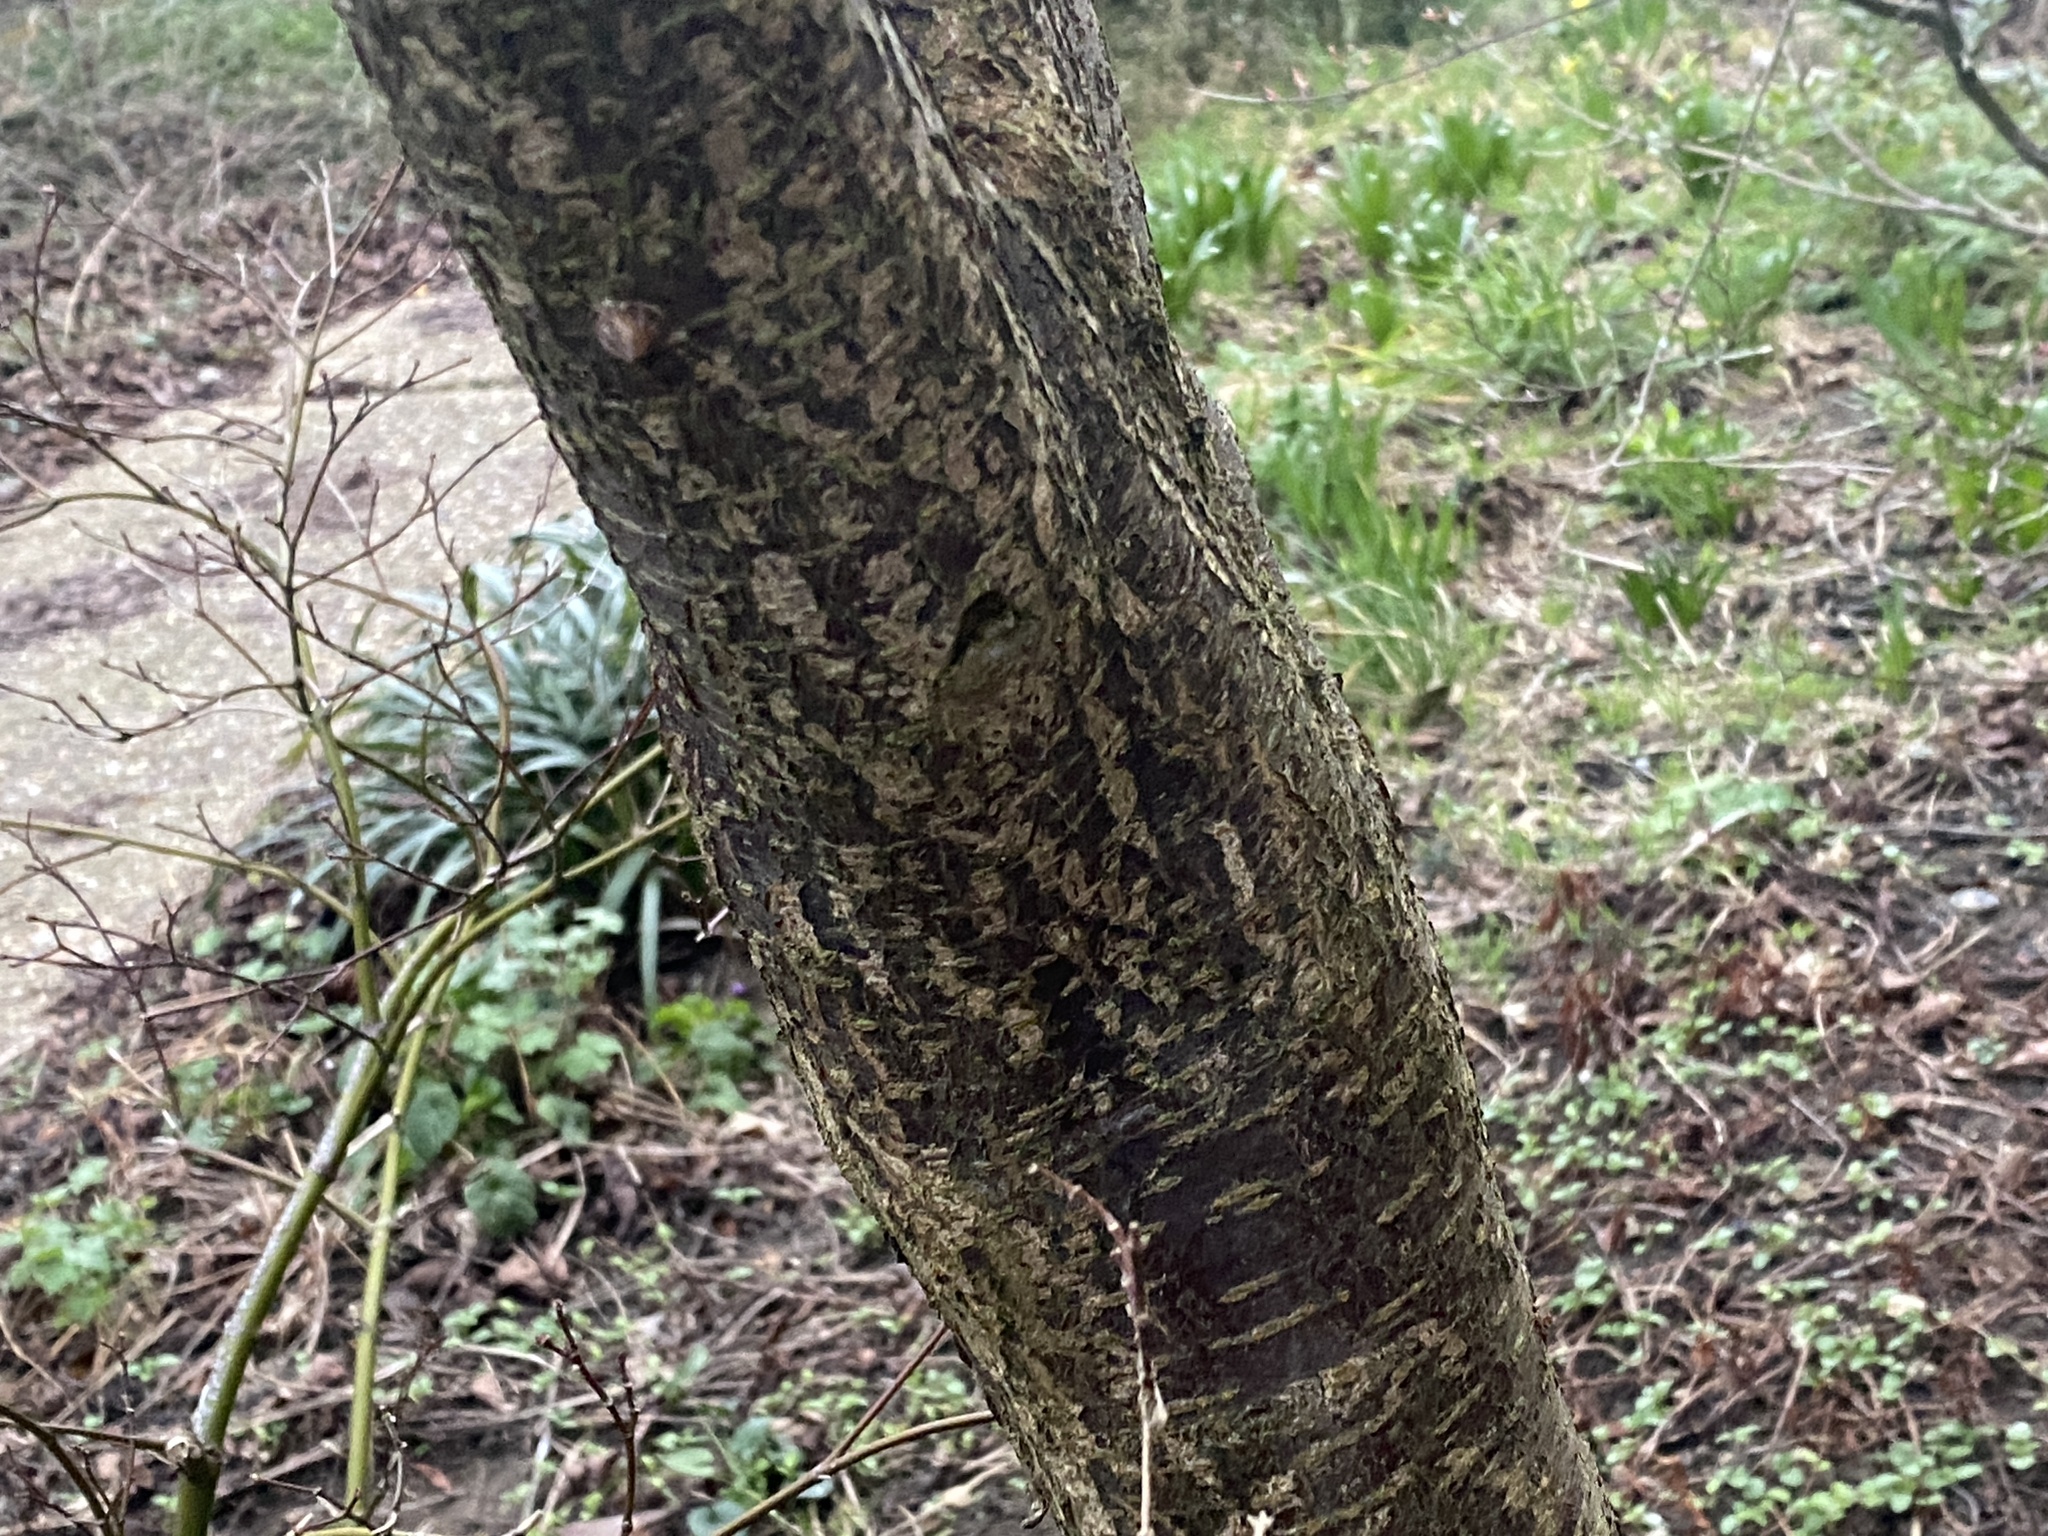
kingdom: Plantae
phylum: Tracheophyta
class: Magnoliopsida
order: Rosales
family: Rosaceae
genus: Prunus
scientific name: Prunus cerasifera
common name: Cherry plum
